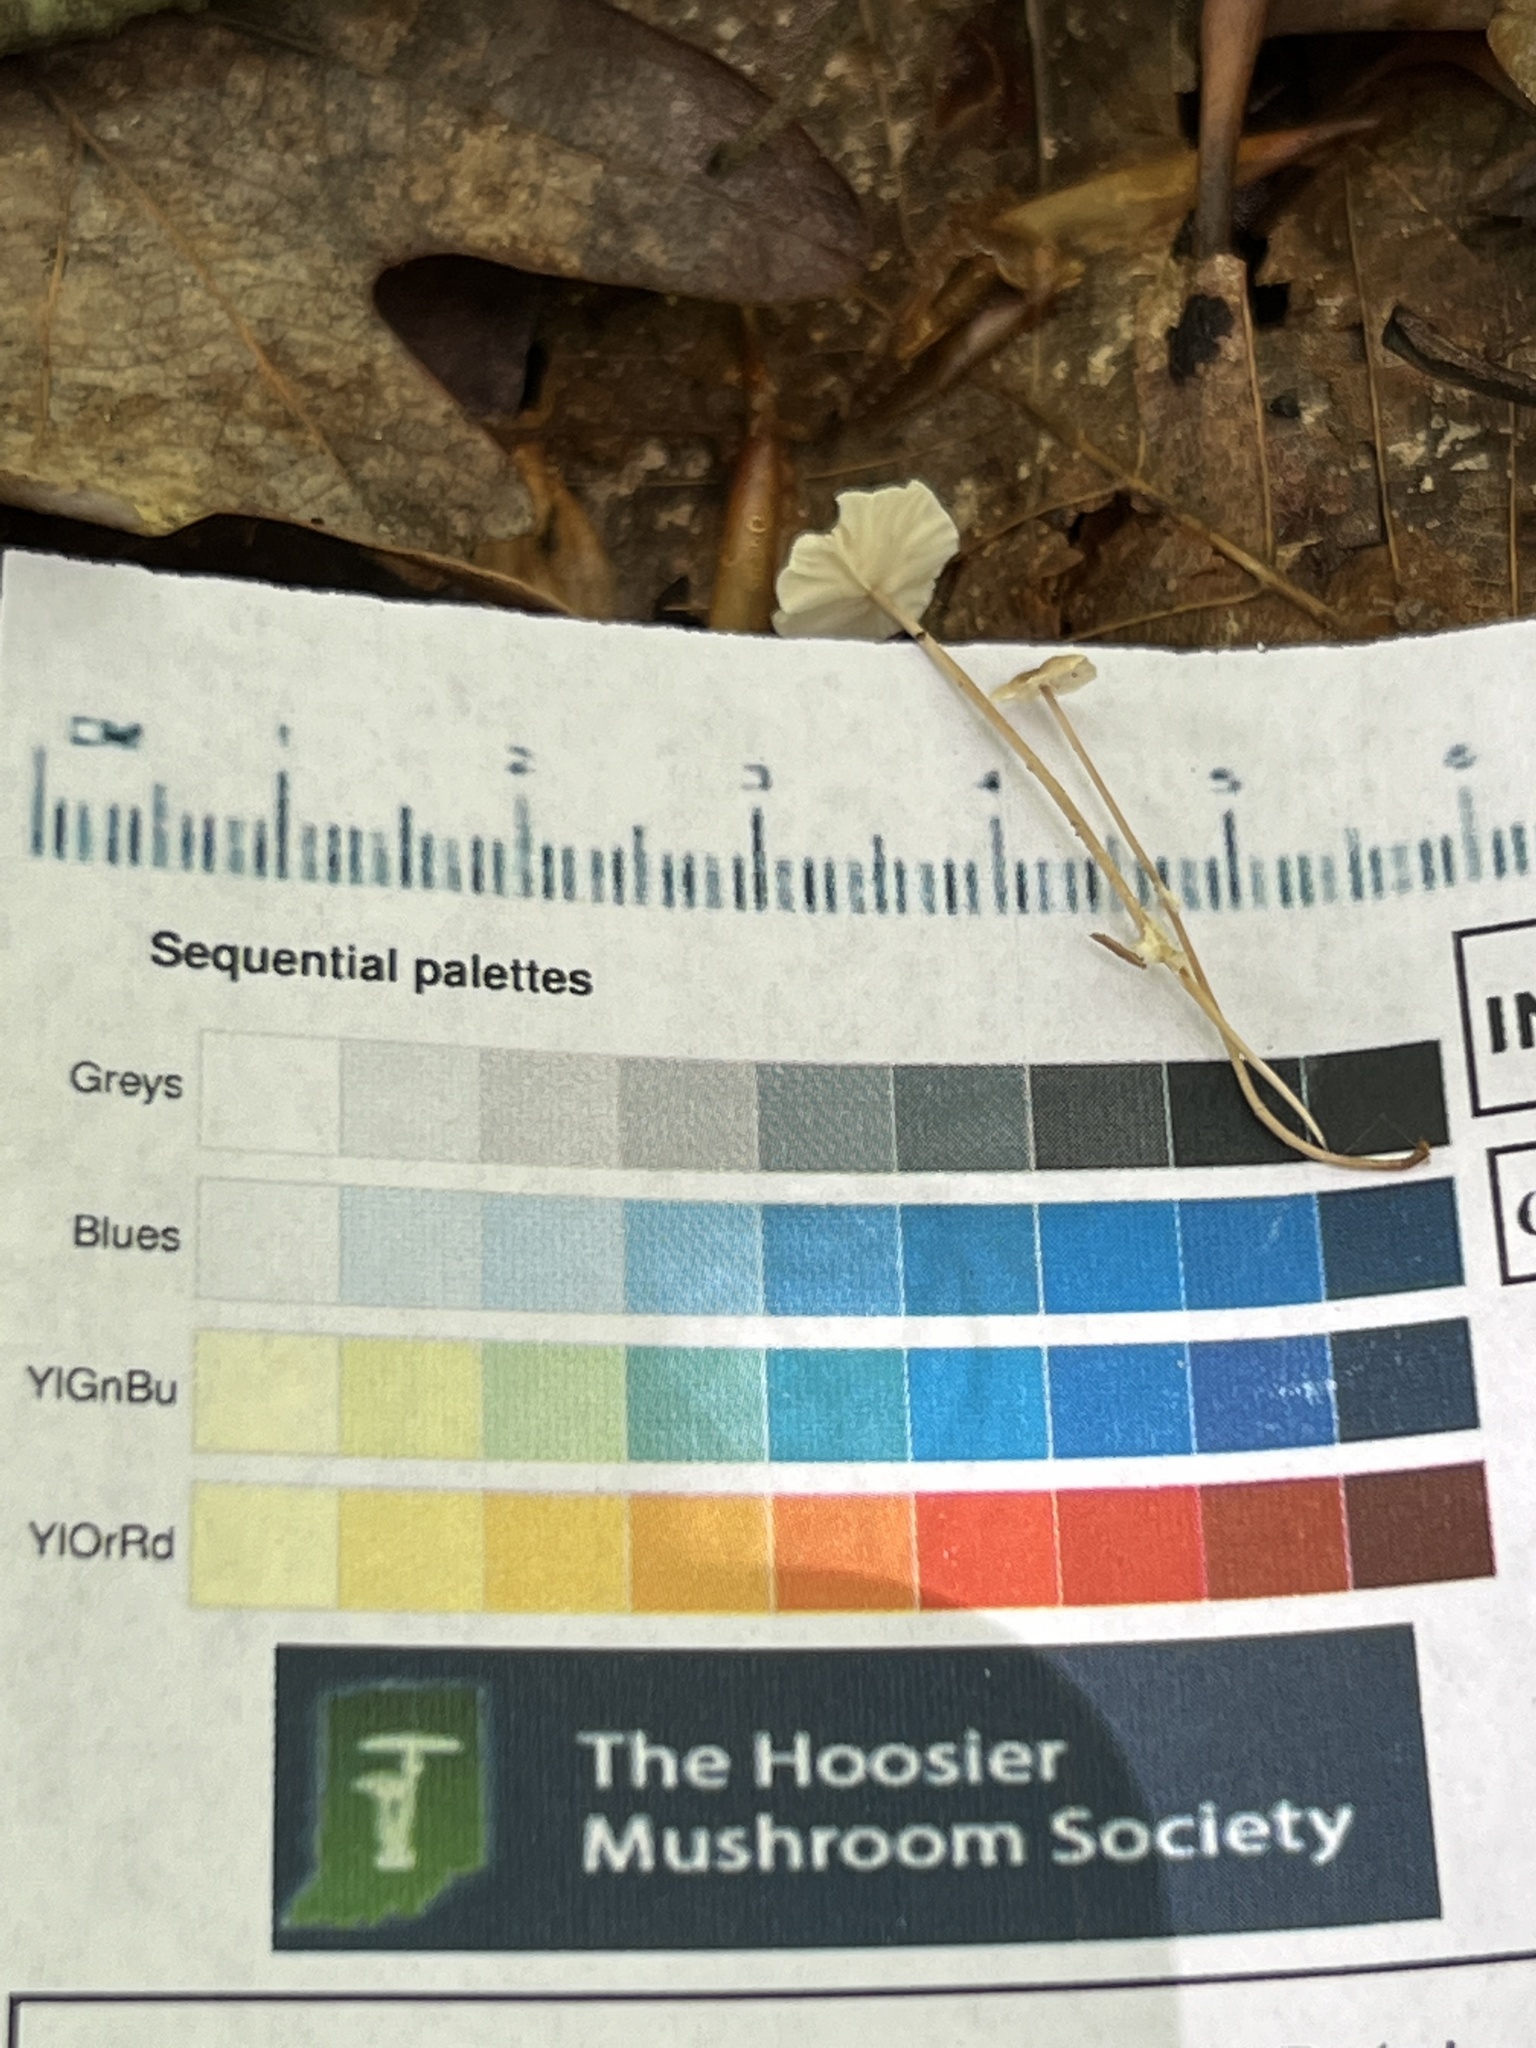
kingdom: Fungi
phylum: Basidiomycota
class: Agaricomycetes
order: Agaricales
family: Omphalotaceae
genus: Mycetinis
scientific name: Mycetinis opacus
